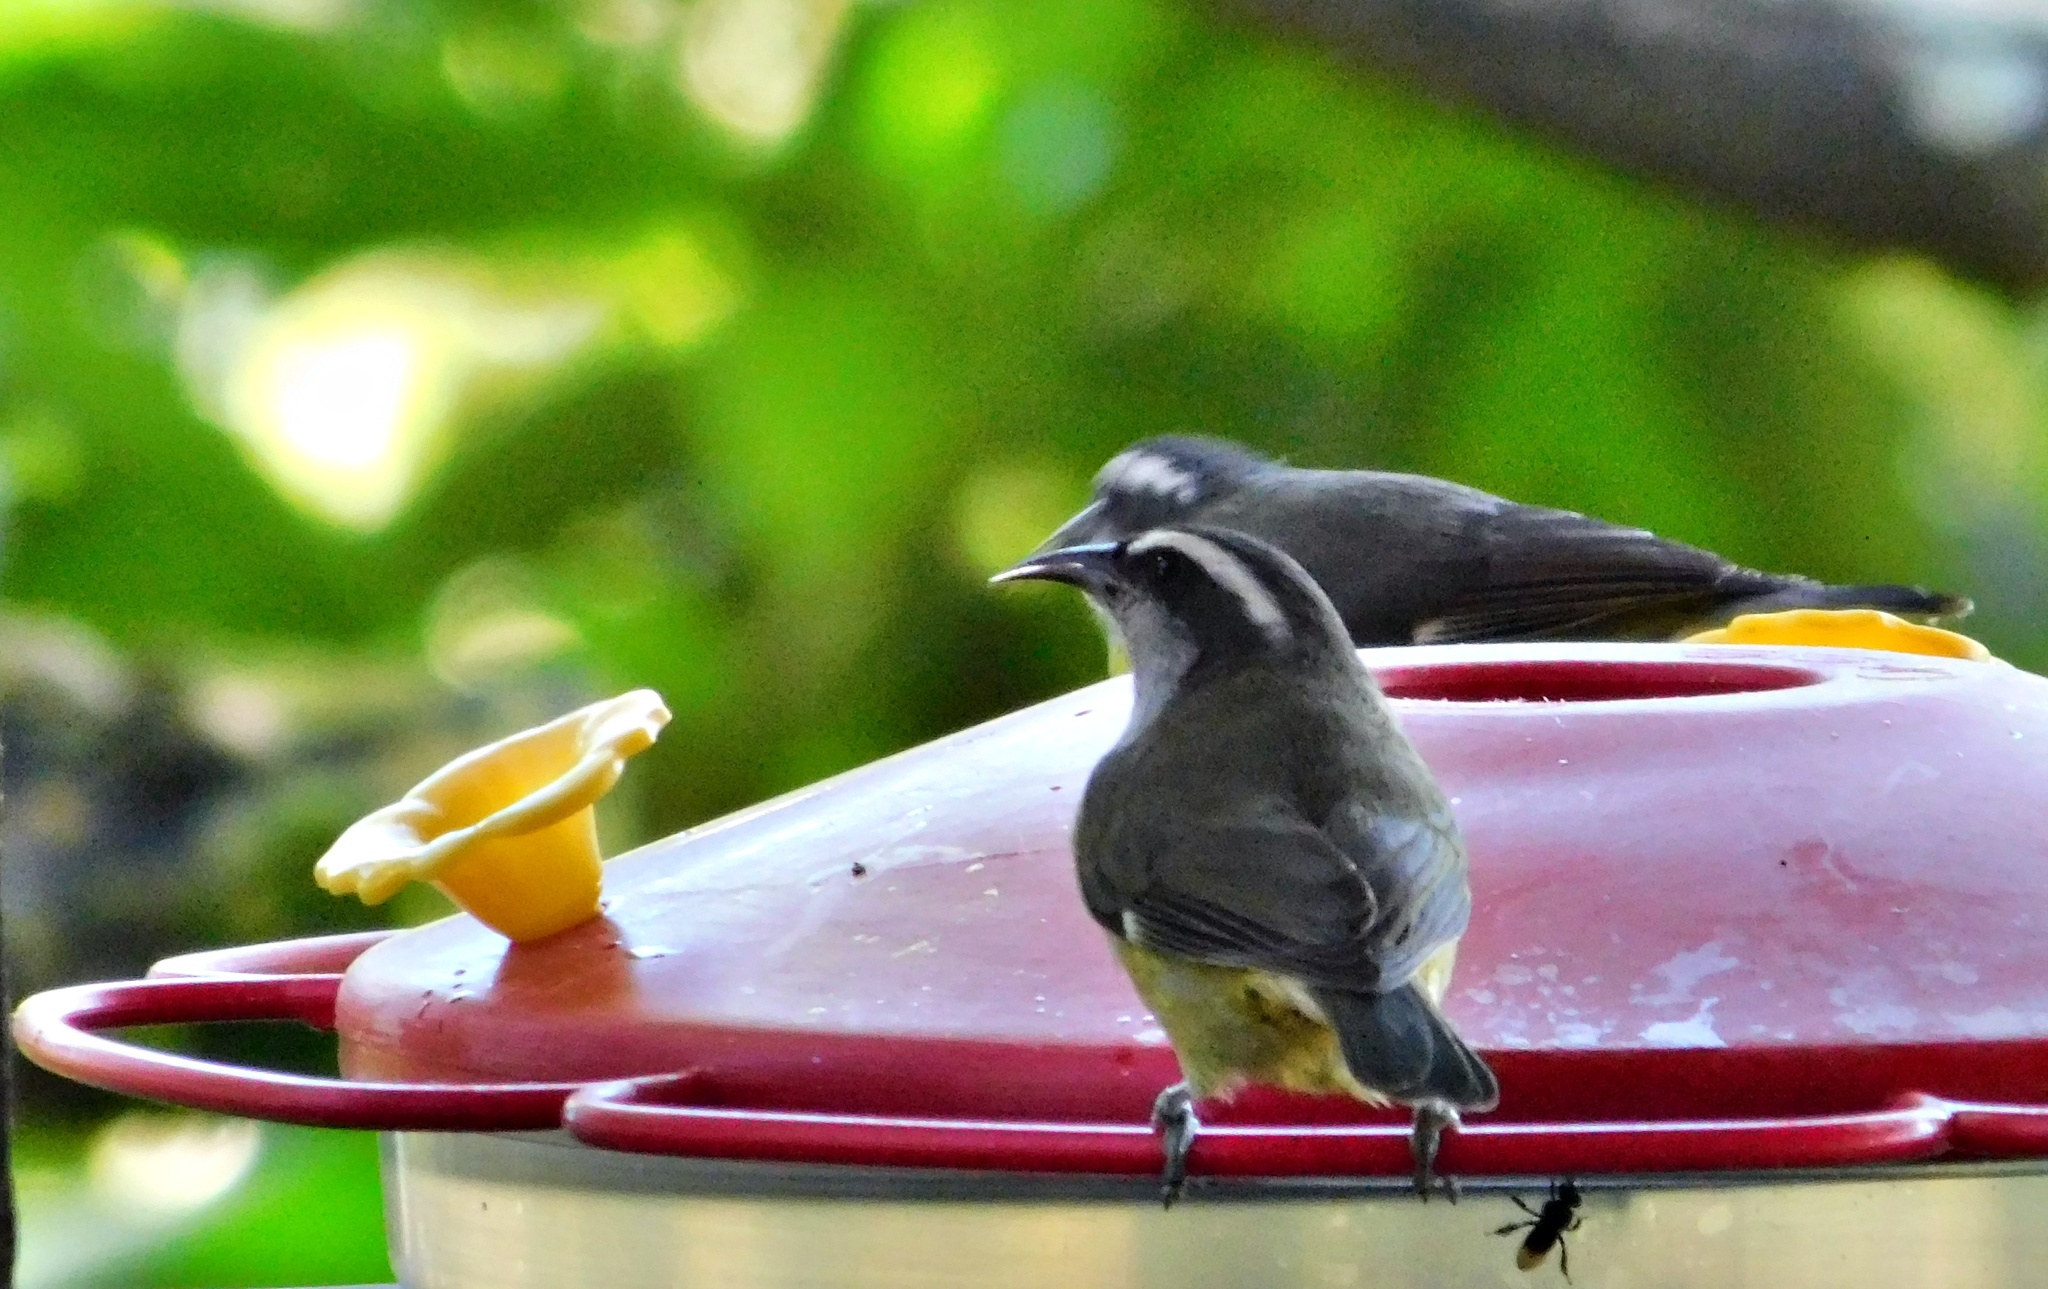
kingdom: Animalia
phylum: Chordata
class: Aves
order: Passeriformes
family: Thraupidae
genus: Coereba
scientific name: Coereba flaveola
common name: Bananaquit
